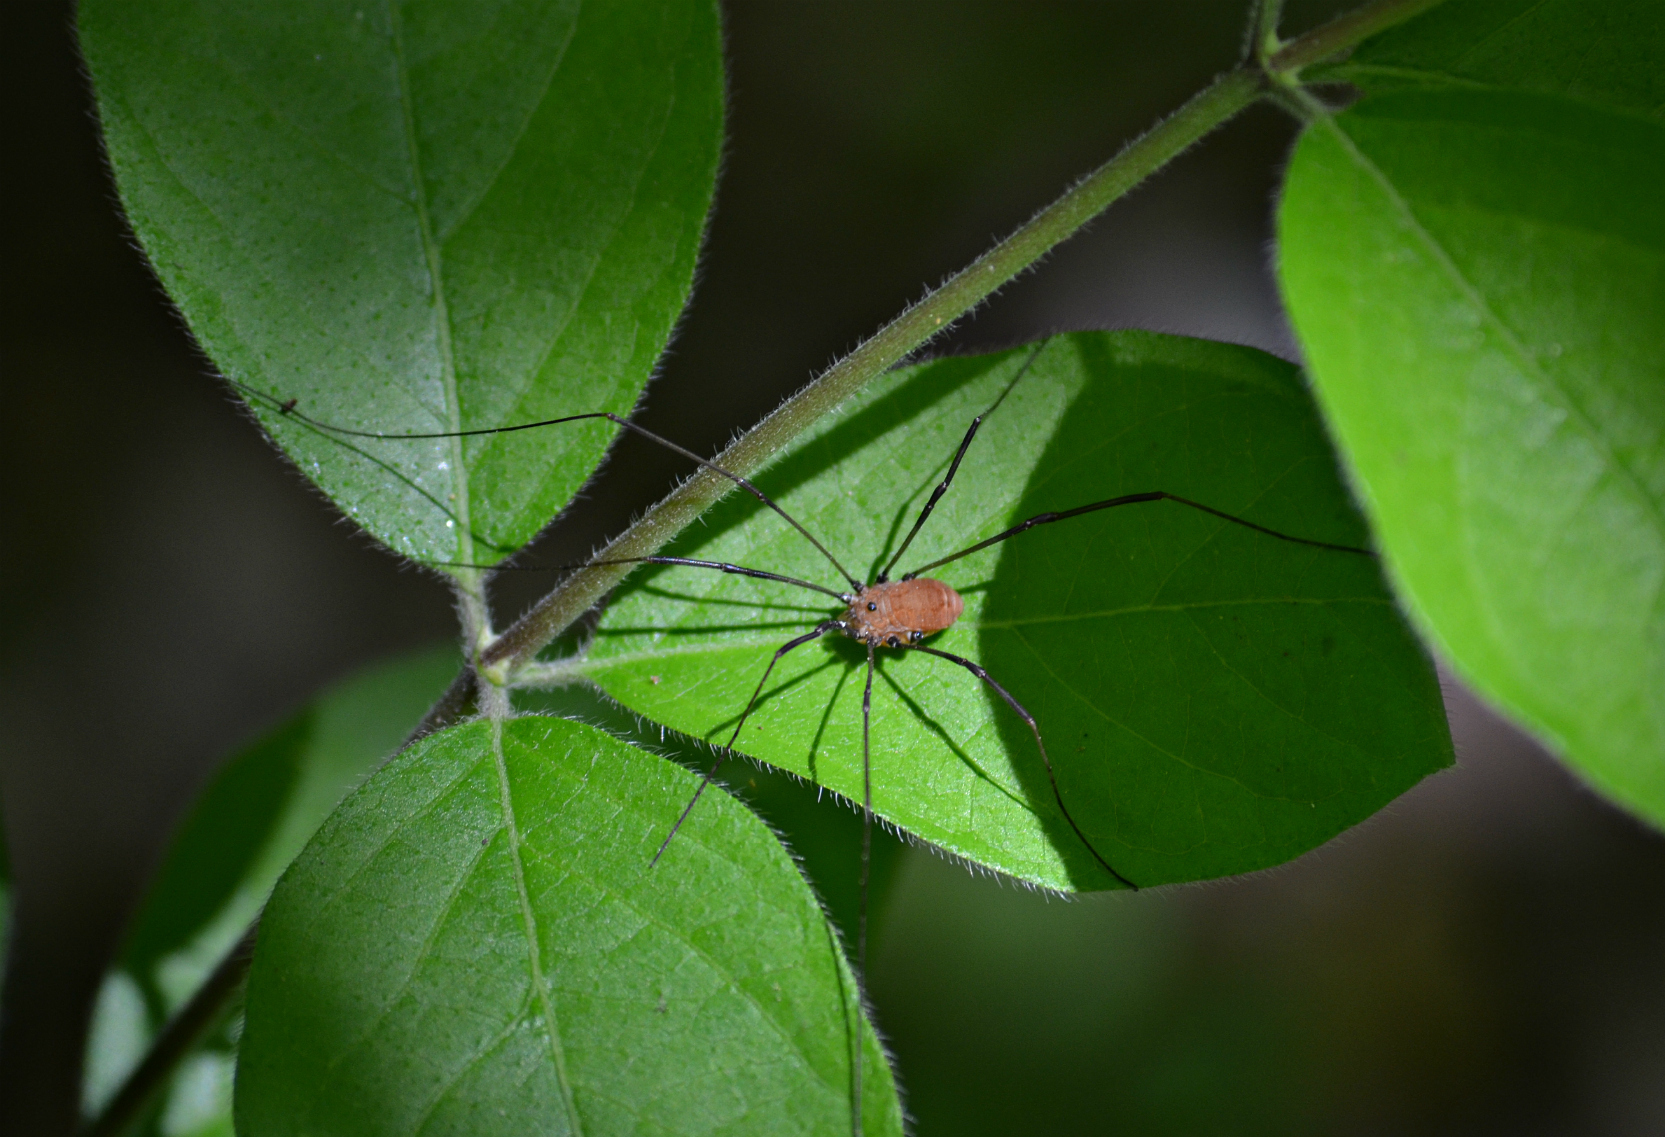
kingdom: Animalia
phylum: Arthropoda
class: Arachnida
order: Opiliones
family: Sclerosomatidae
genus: Leiobunum
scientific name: Leiobunum verrucosum
